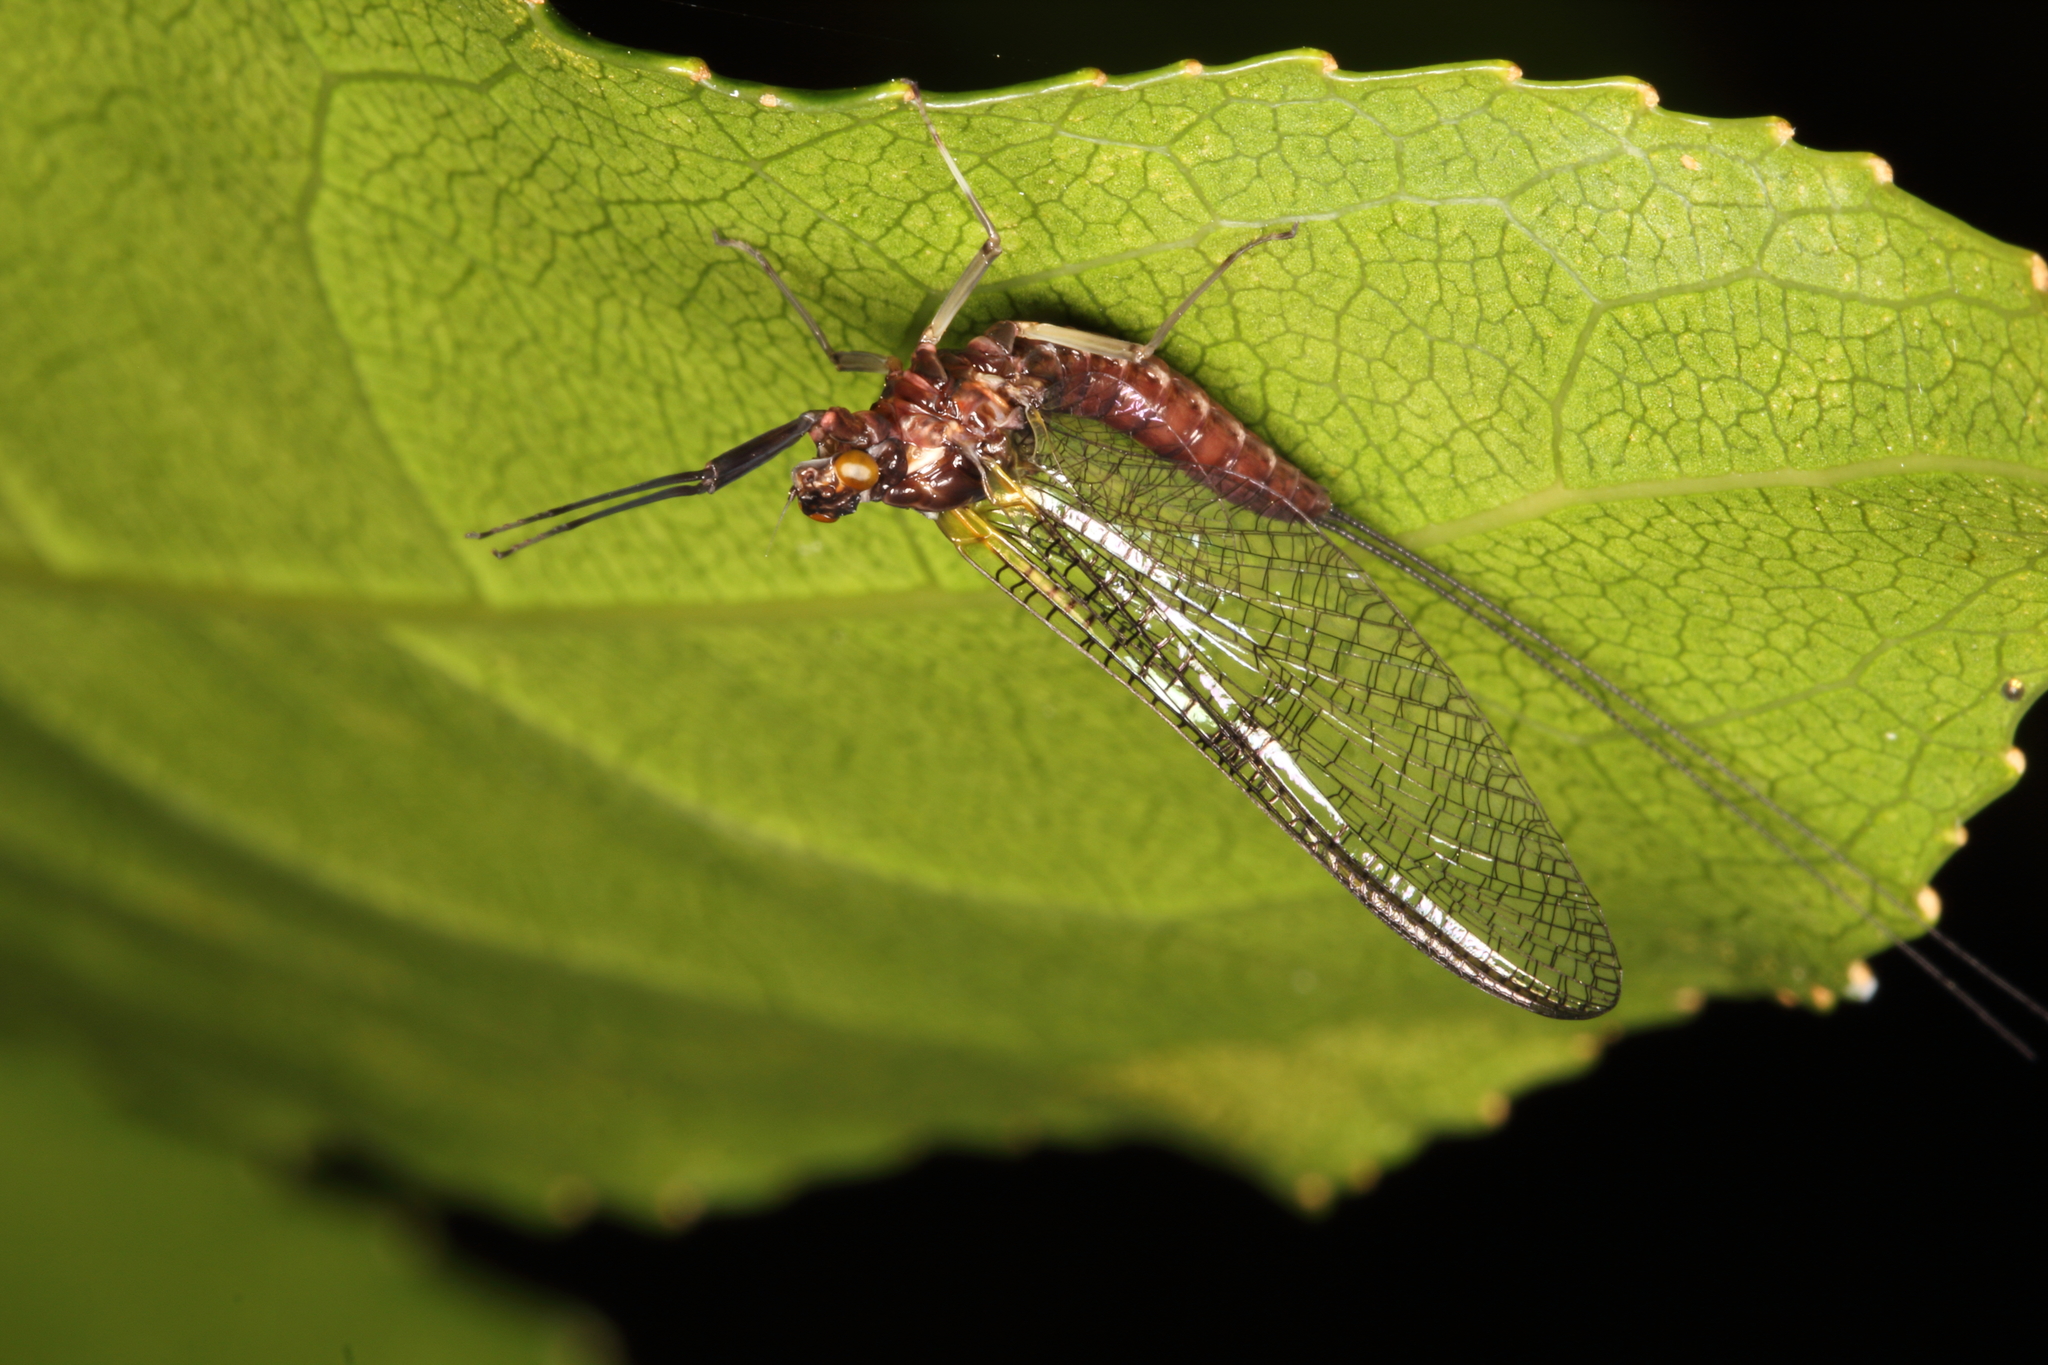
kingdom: Animalia
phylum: Arthropoda
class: Insecta
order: Ephemeroptera
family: Coloburiscidae
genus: Coloburiscus
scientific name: Coloburiscus humeralis
